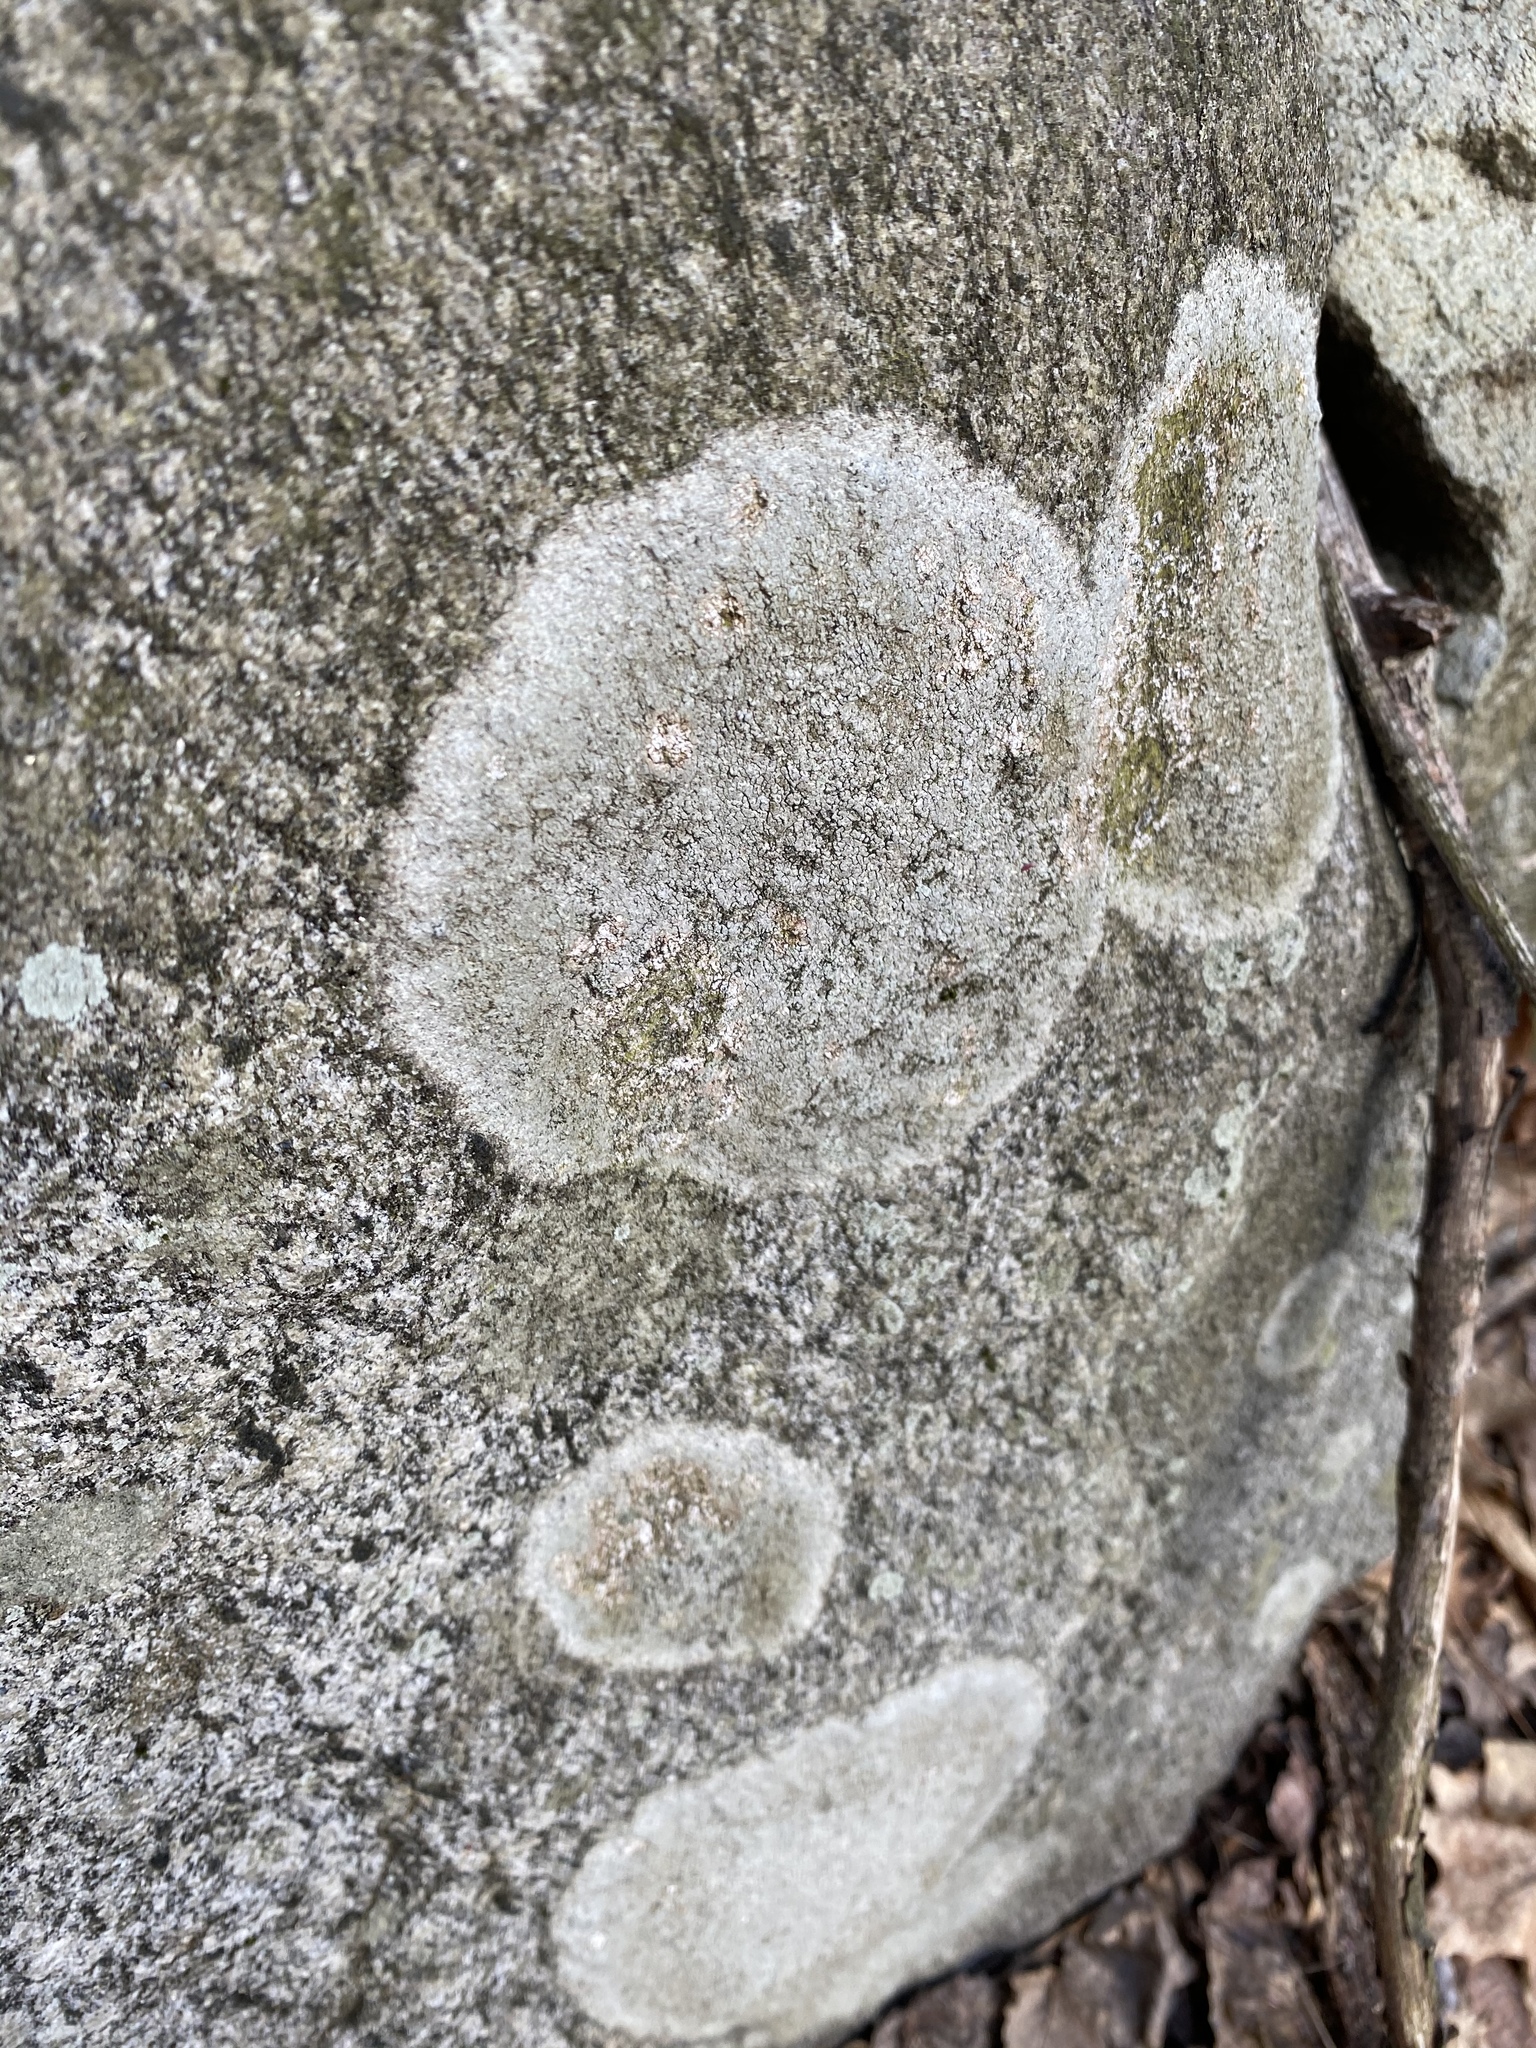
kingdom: Fungi
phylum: Ascomycota
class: Lecanoromycetes
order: Ostropales
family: Phlyctidaceae
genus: Phlyctis
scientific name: Phlyctis argena
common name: Whitewash lichen
